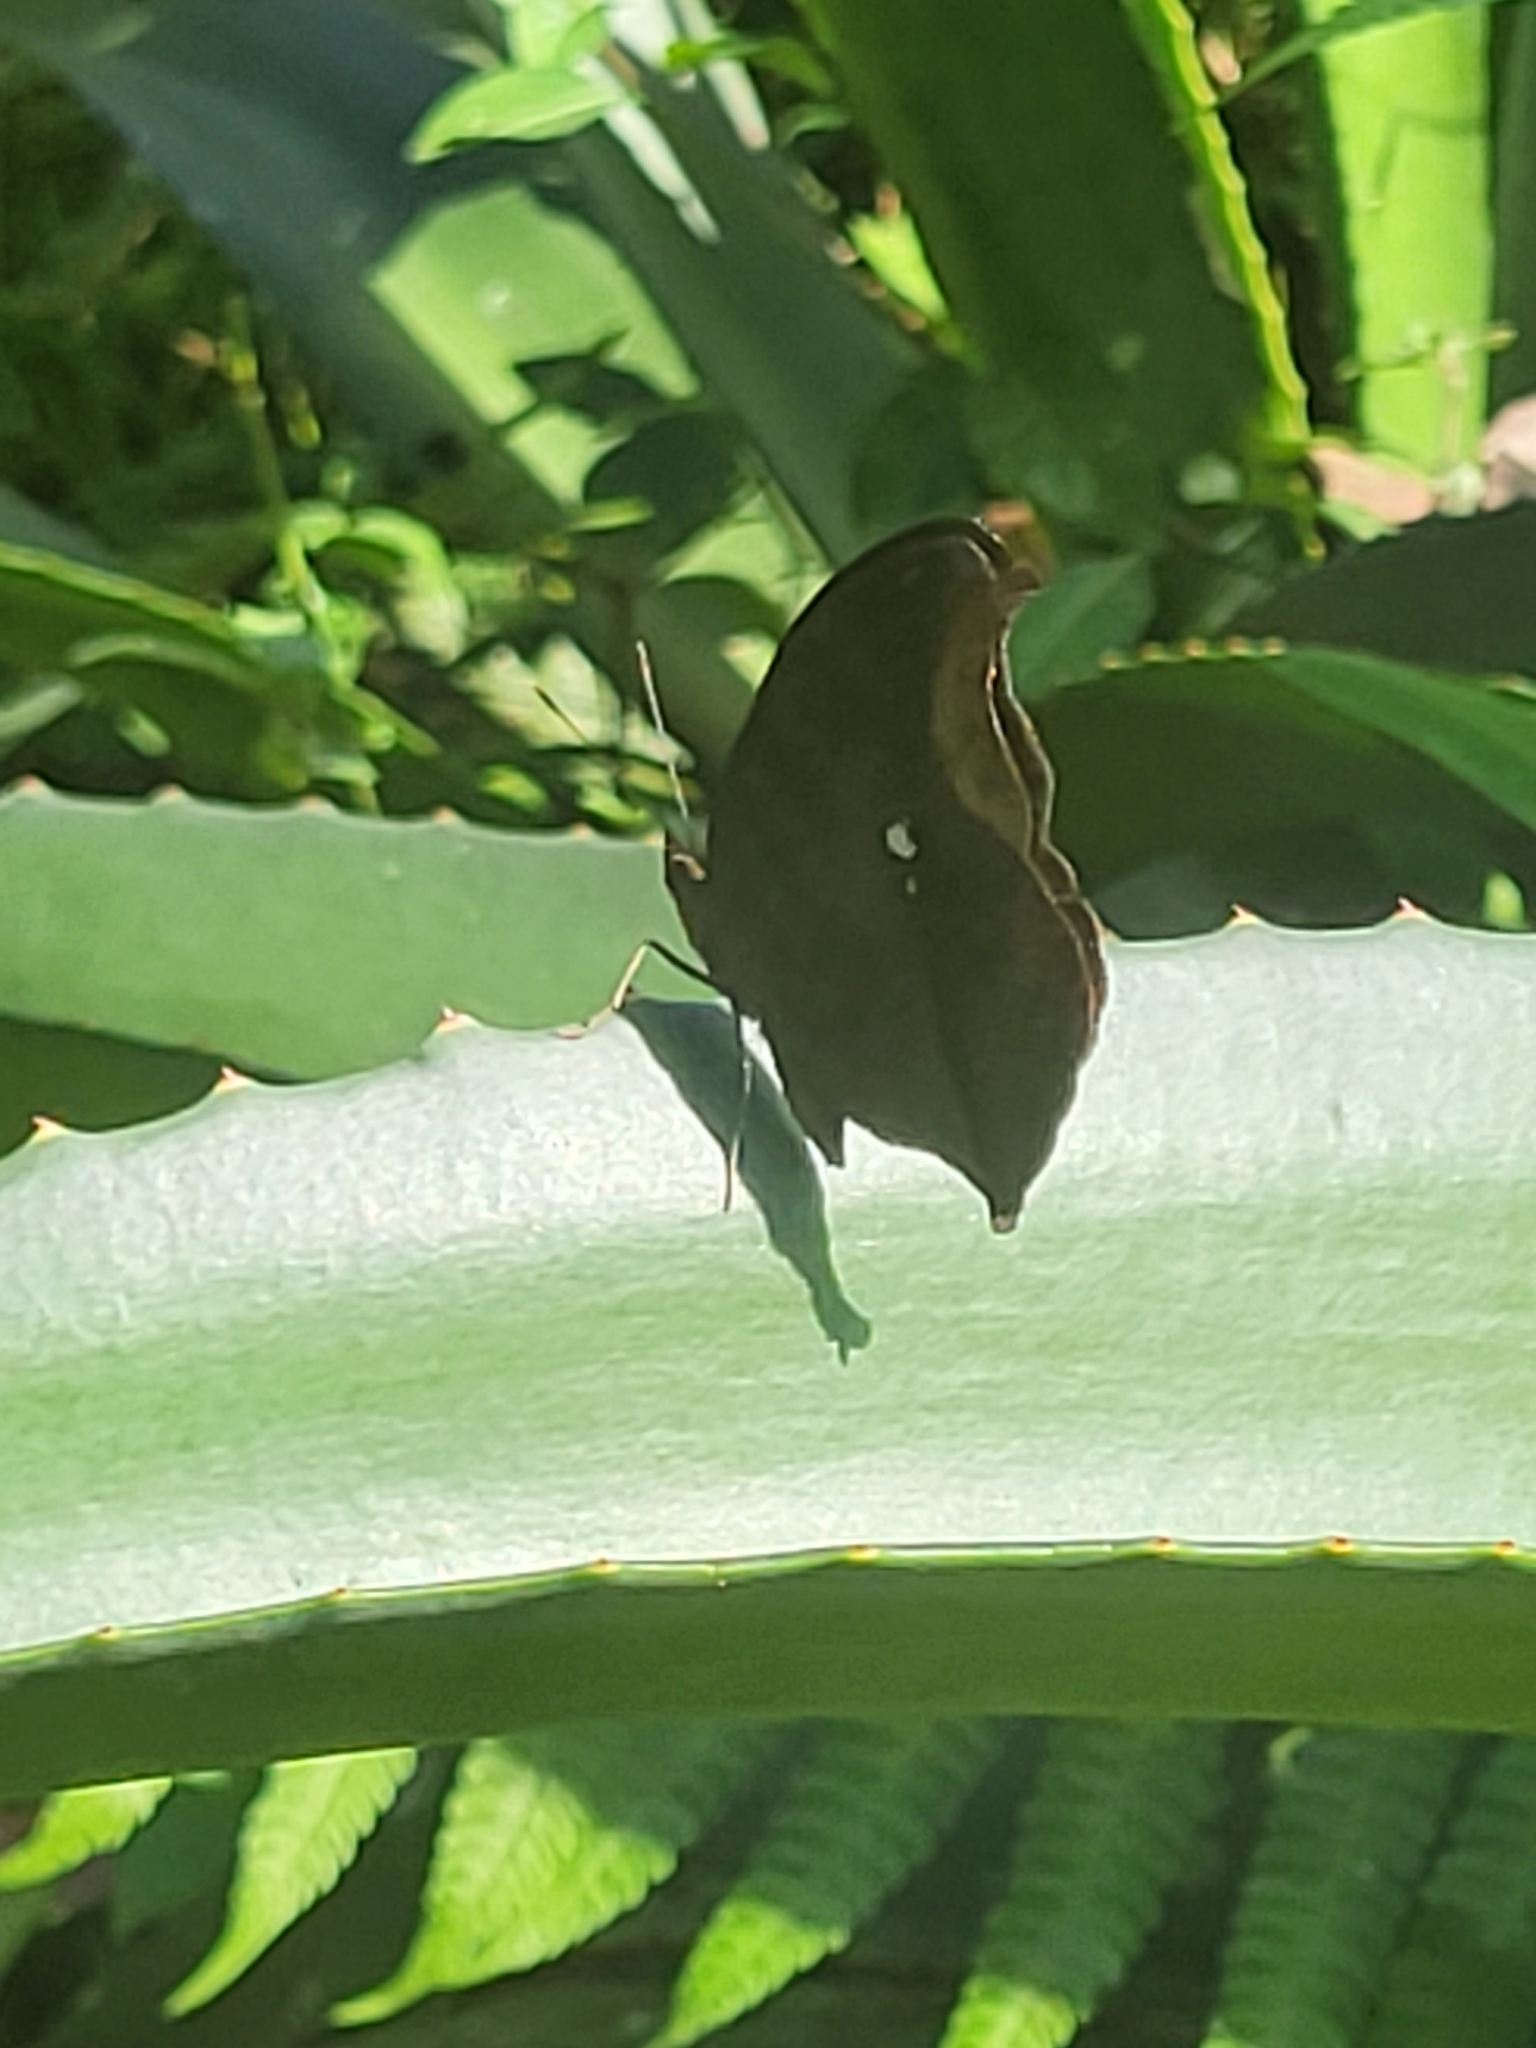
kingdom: Animalia
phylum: Arthropoda
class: Insecta
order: Lepidoptera
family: Nymphalidae
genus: Junonia
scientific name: Junonia iphita
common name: Chocolate pansy
